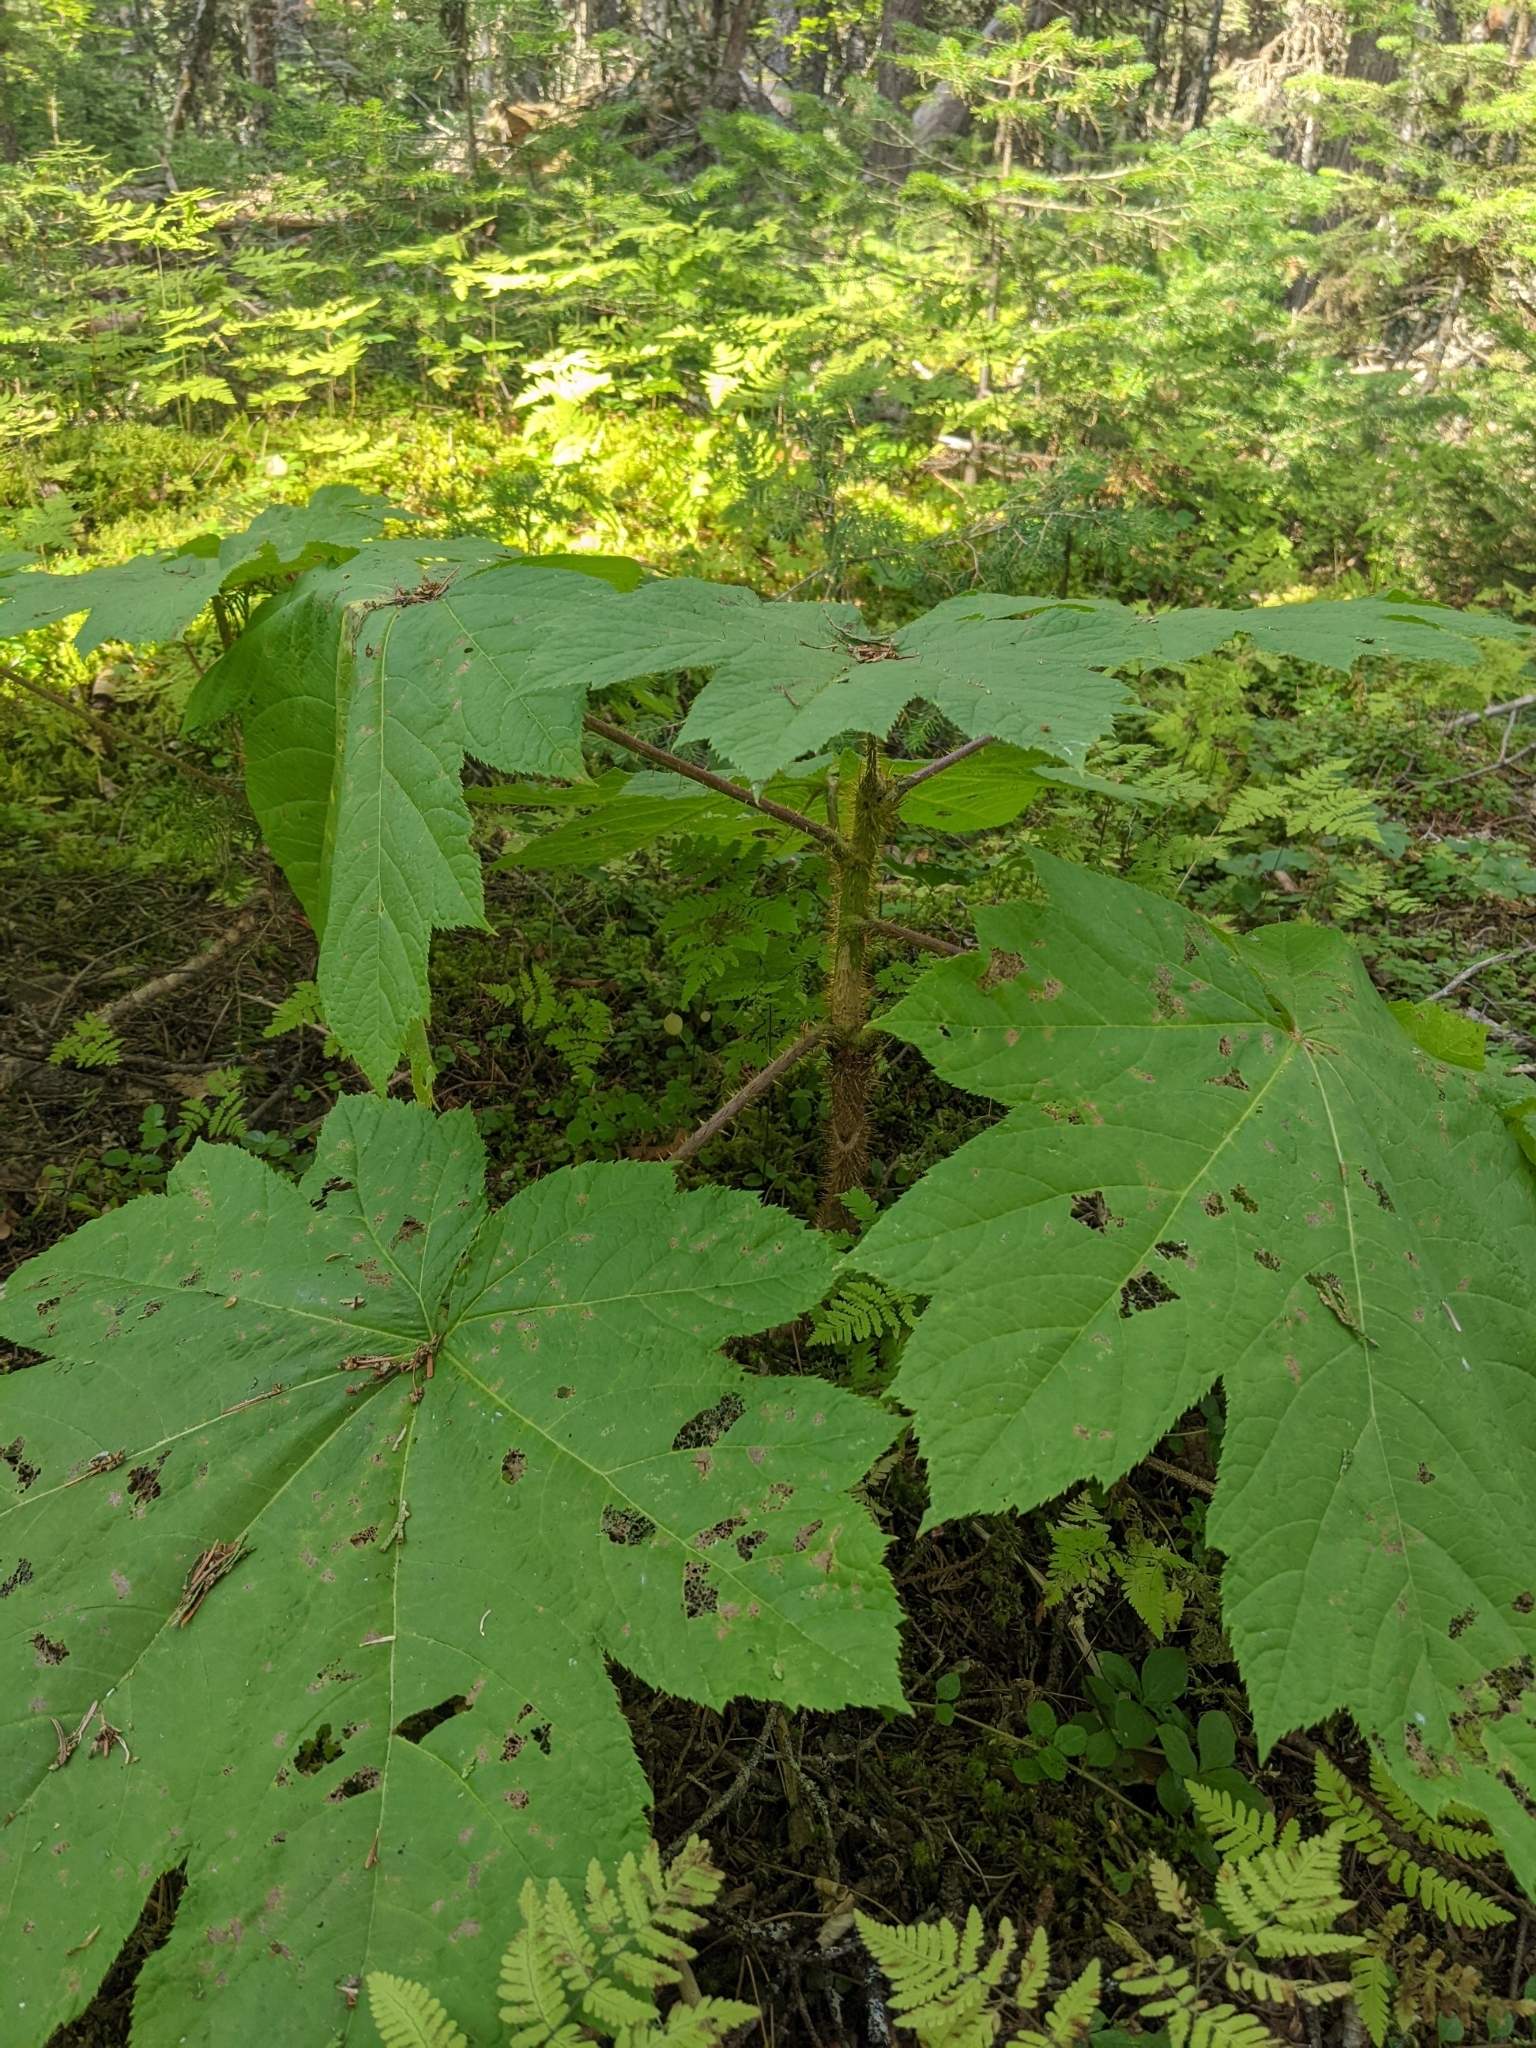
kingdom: Plantae
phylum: Tracheophyta
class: Magnoliopsida
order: Apiales
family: Araliaceae
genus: Oplopanax
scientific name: Oplopanax horridus
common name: Devil's walking-stick
